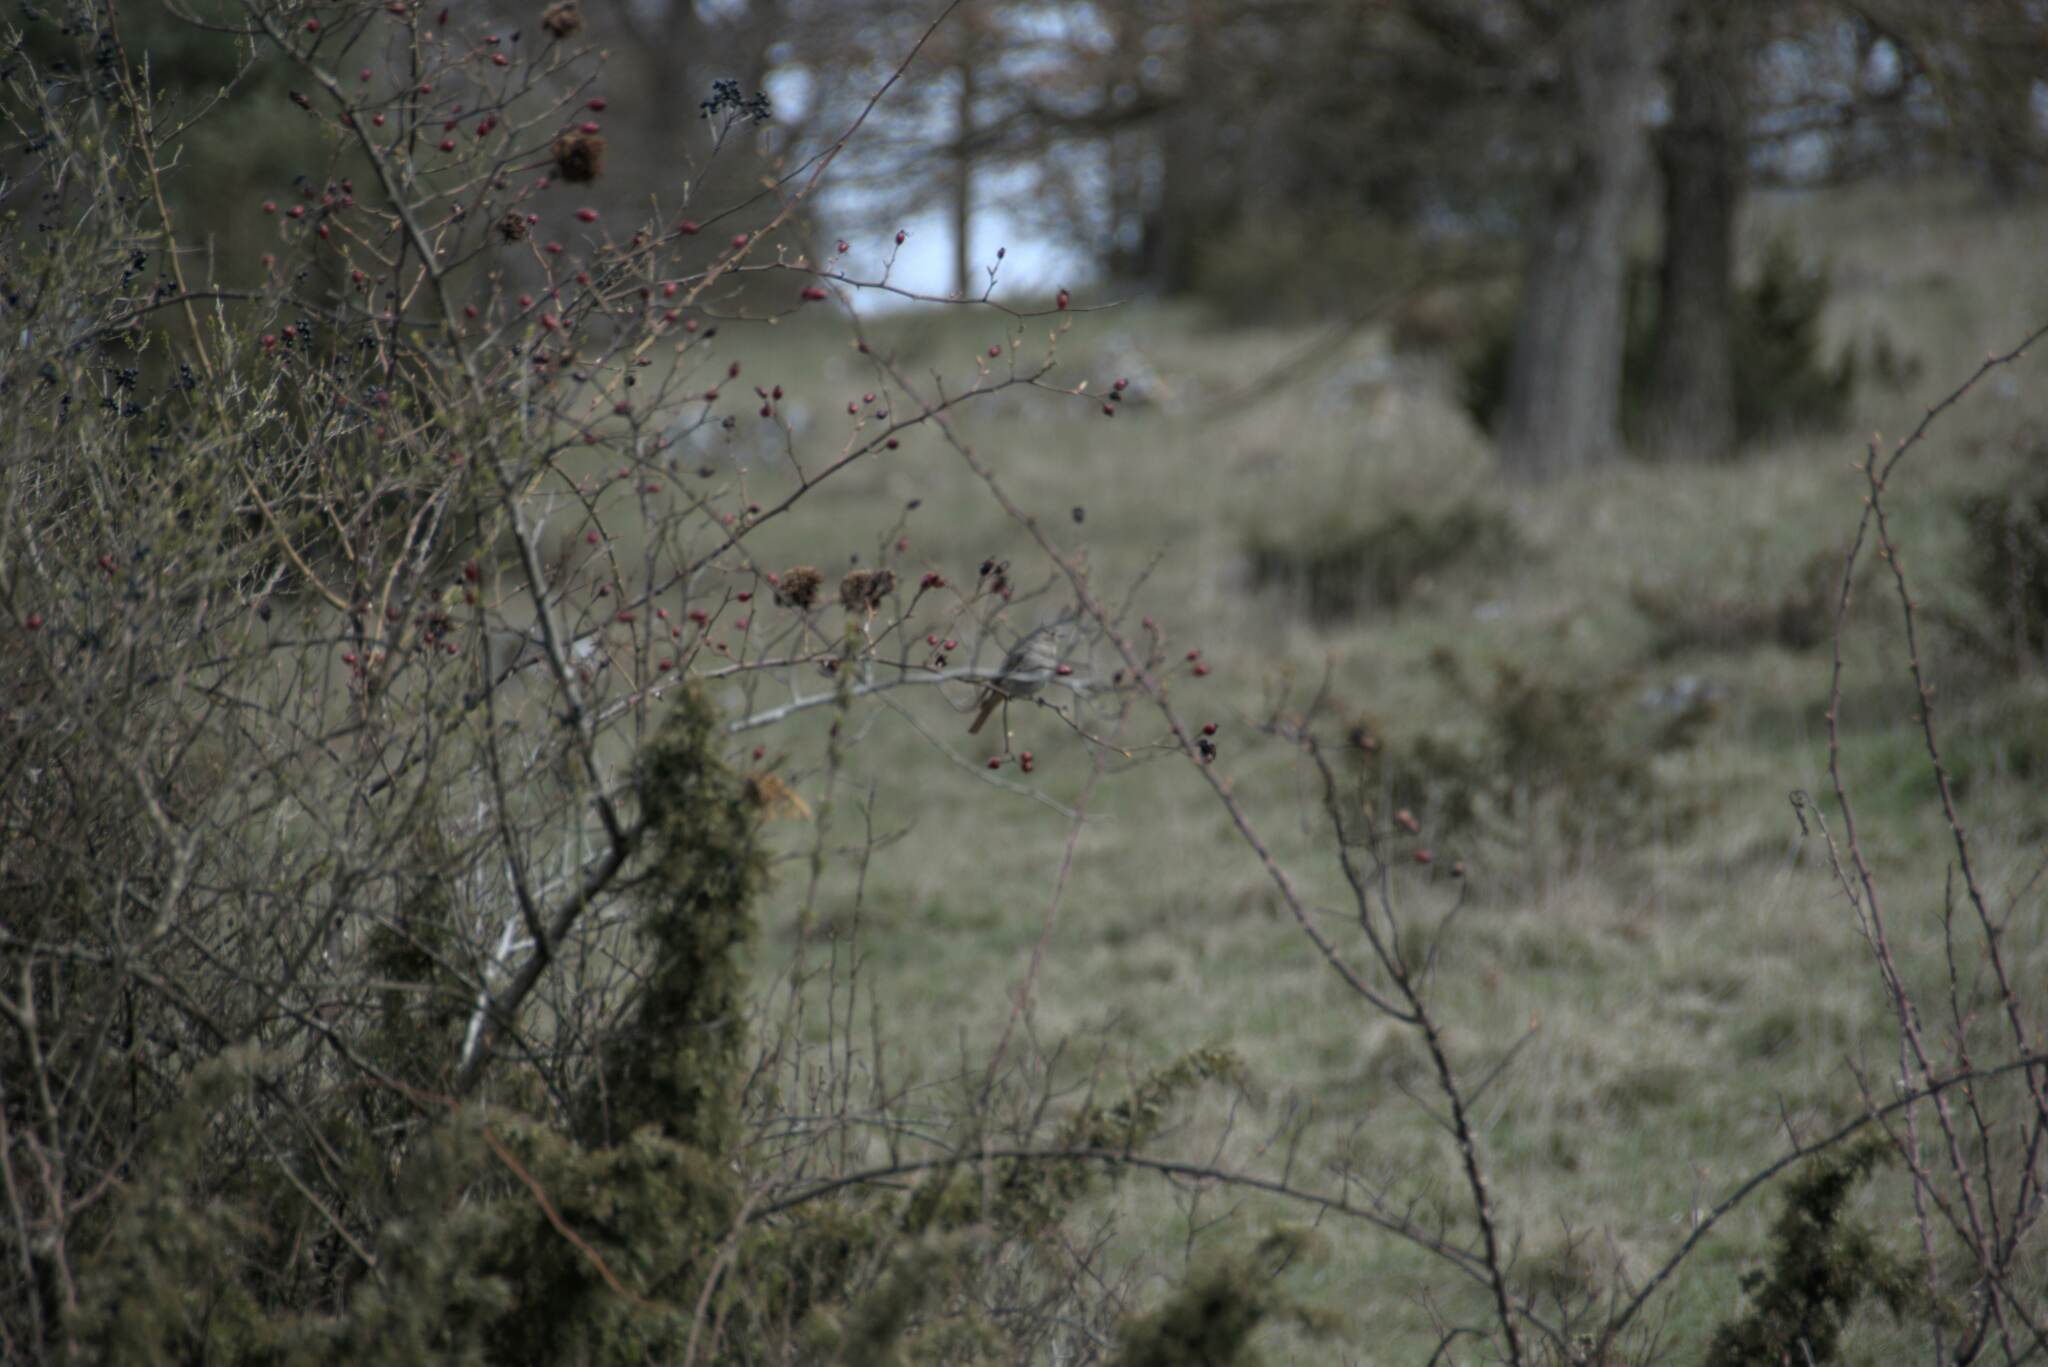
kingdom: Animalia
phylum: Chordata
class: Aves
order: Passeriformes
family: Muscicapidae
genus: Phoenicurus
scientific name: Phoenicurus ochruros
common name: Black redstart
